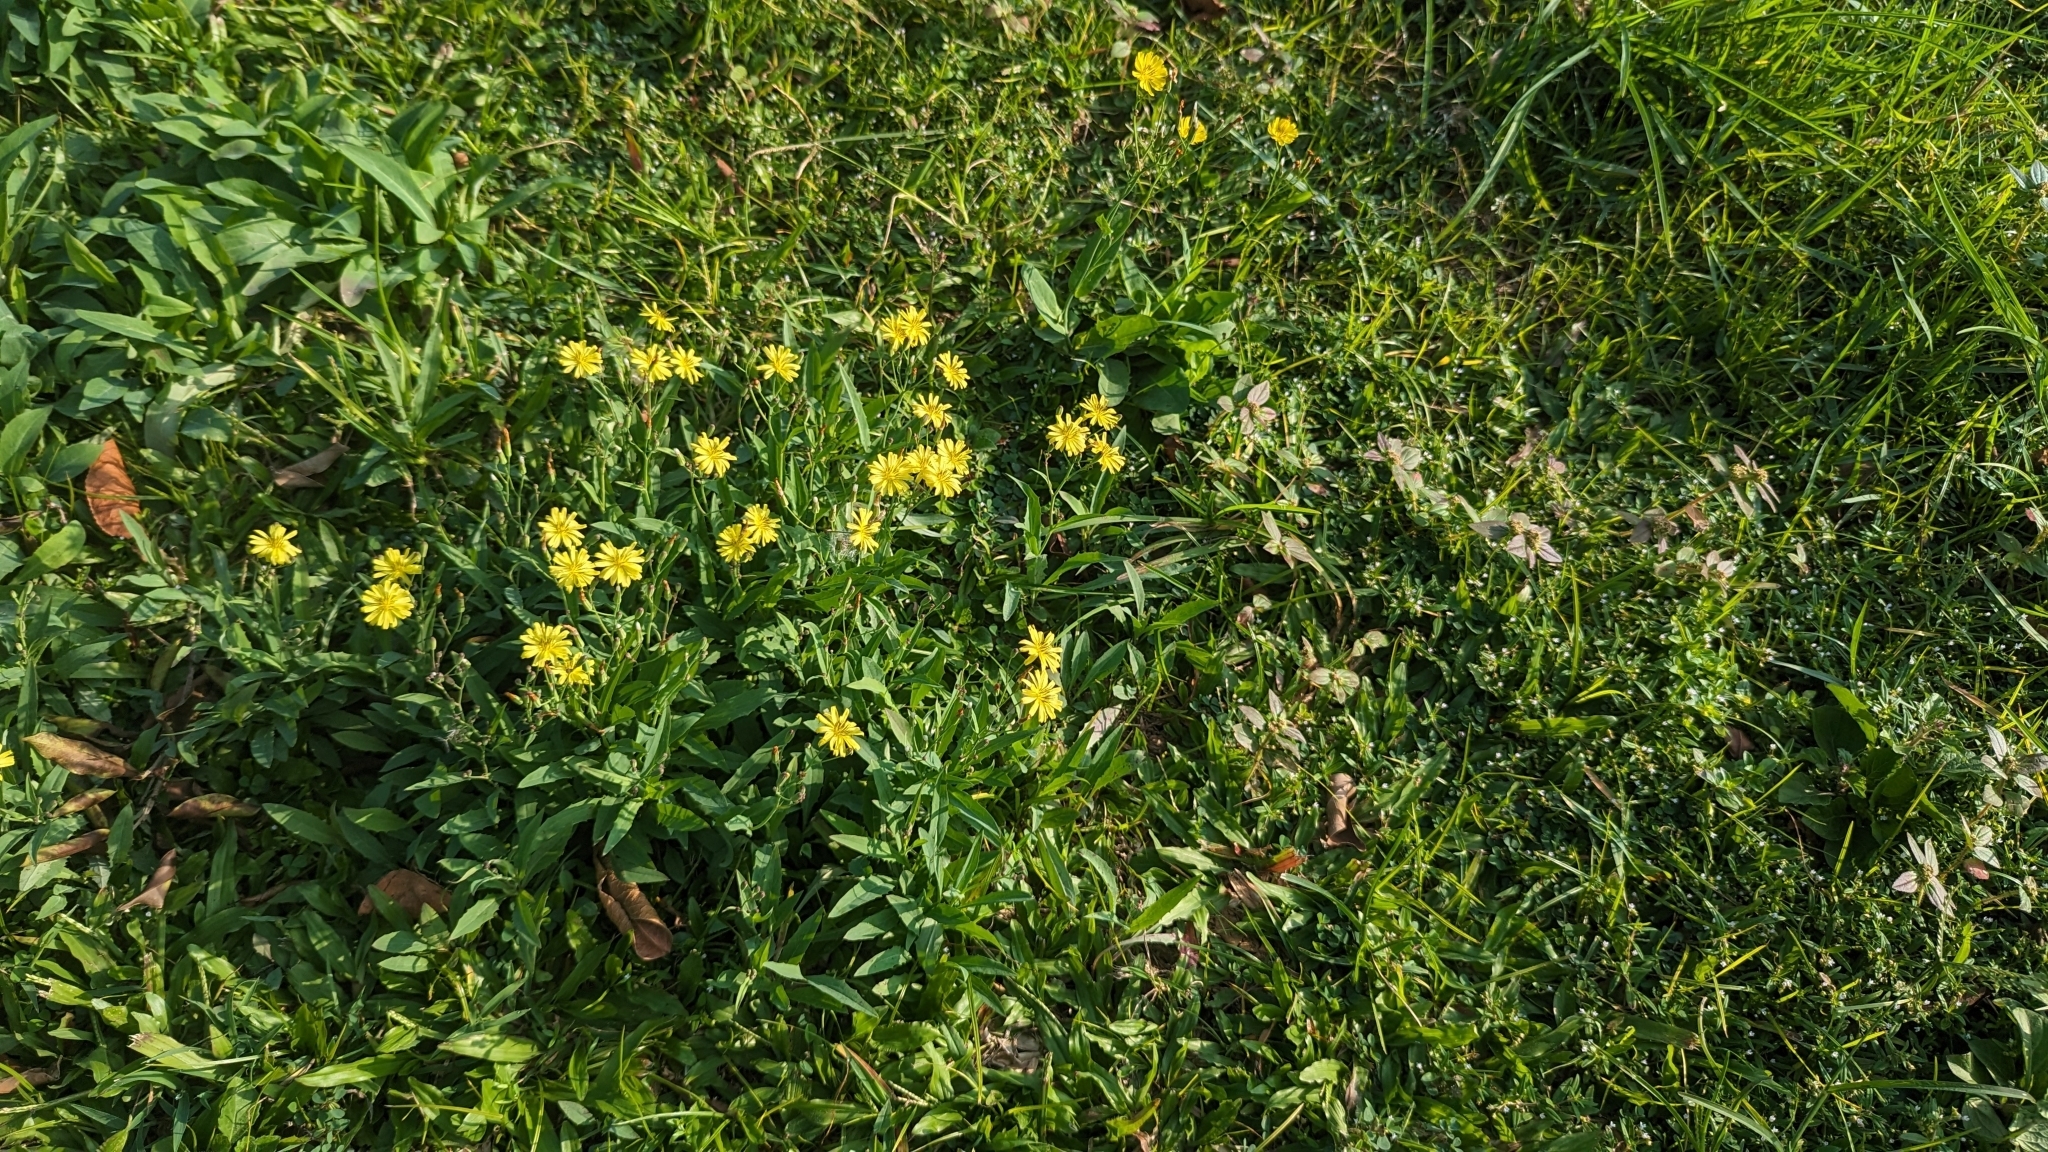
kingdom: Plantae
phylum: Tracheophyta
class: Magnoliopsida
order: Asterales
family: Asteraceae
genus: Ixeris
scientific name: Ixeris chinensis
